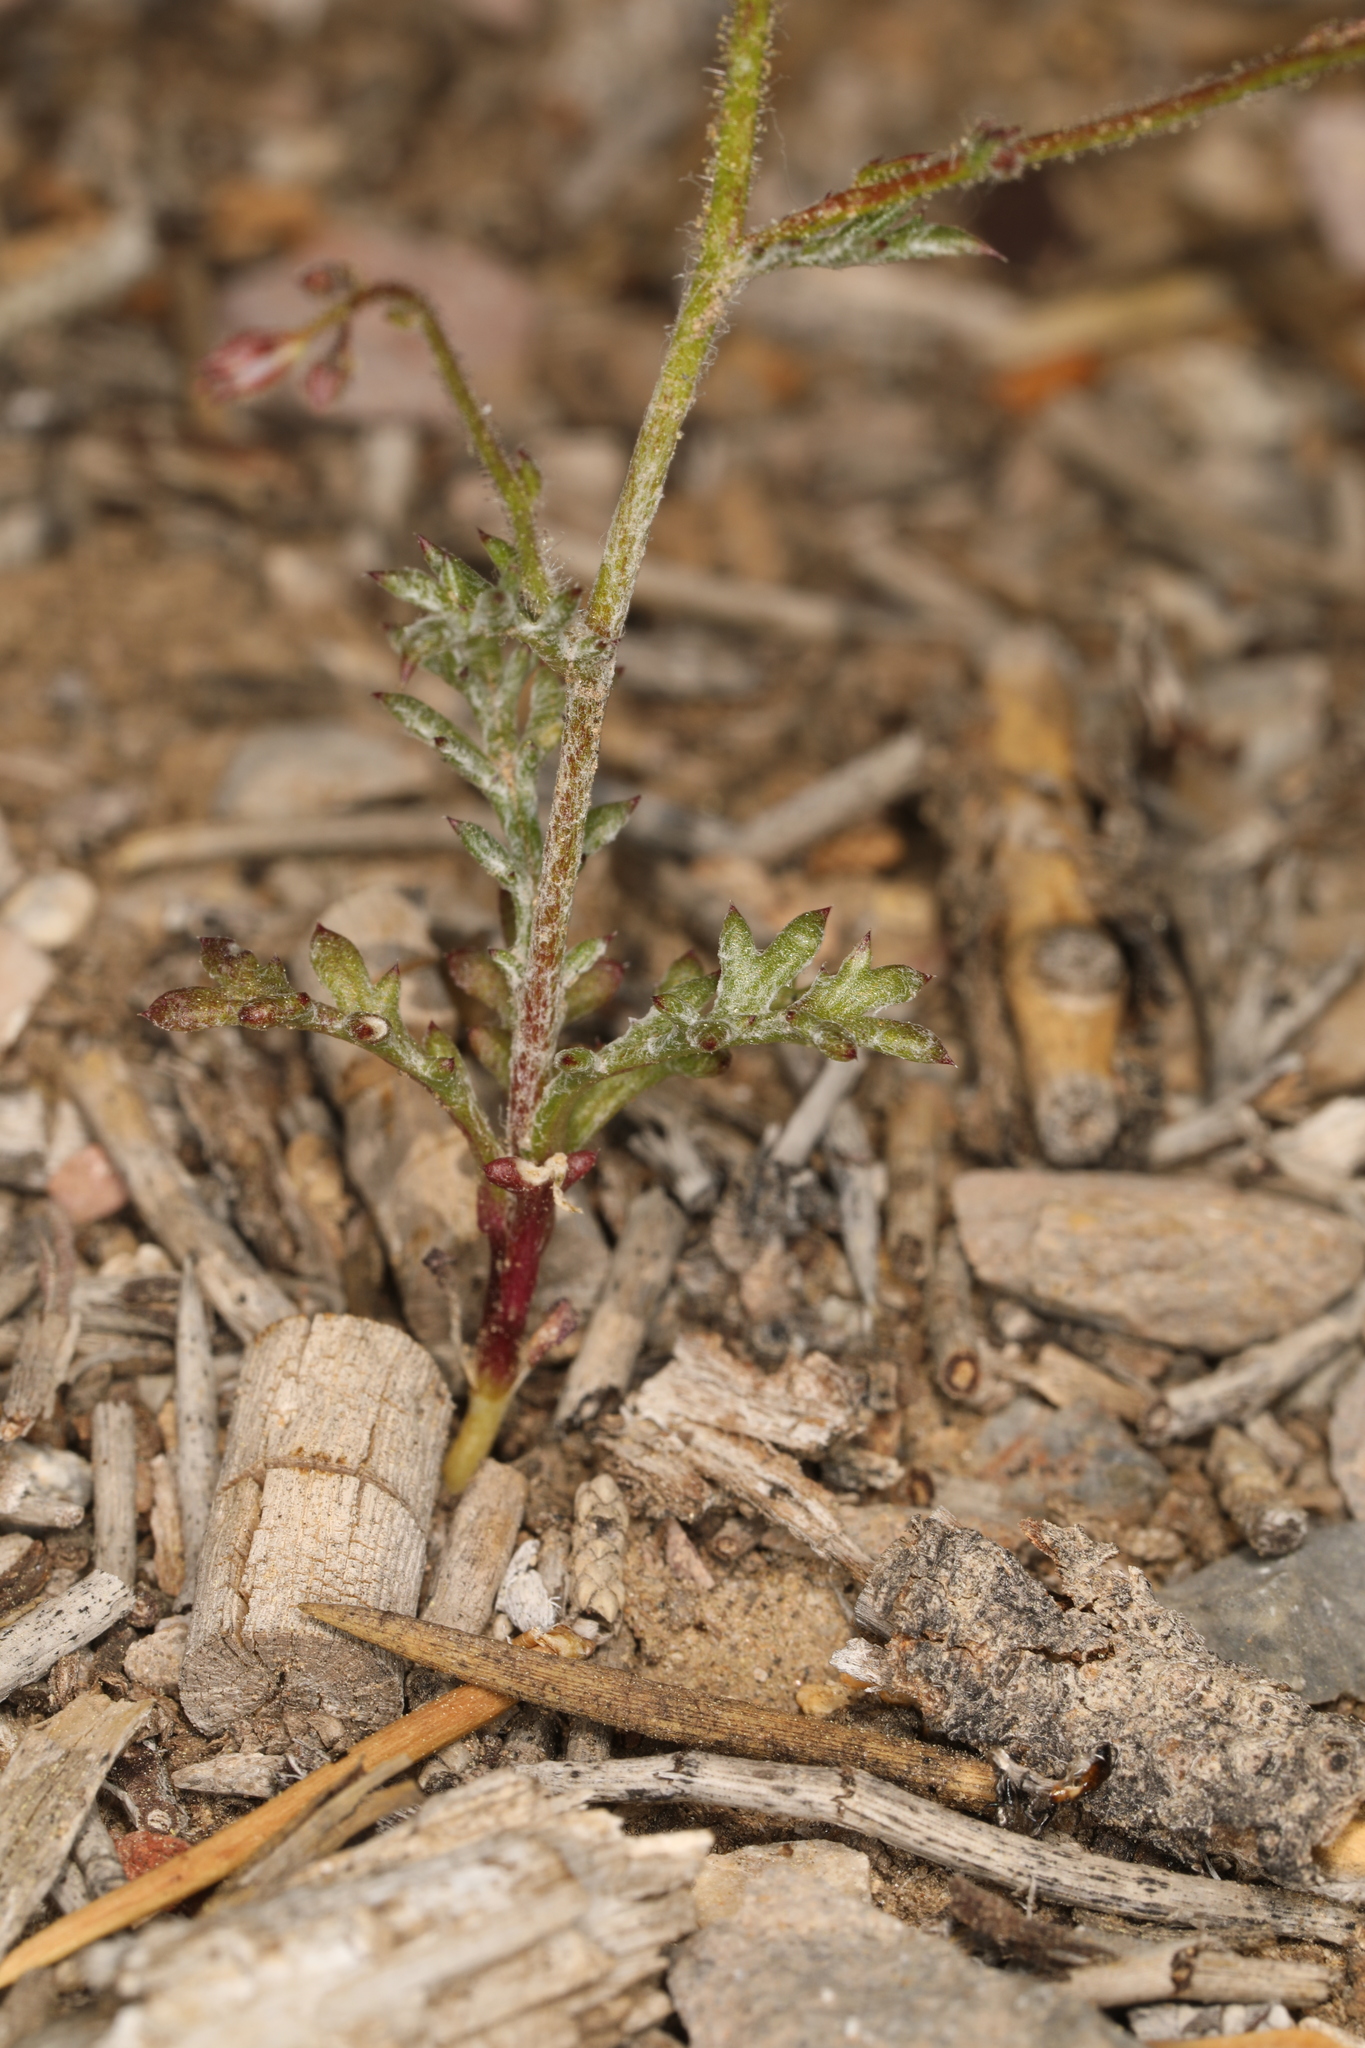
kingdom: Plantae
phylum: Tracheophyta
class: Magnoliopsida
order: Ericales
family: Polemoniaceae
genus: Gilia
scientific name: Gilia ophthalmoides
